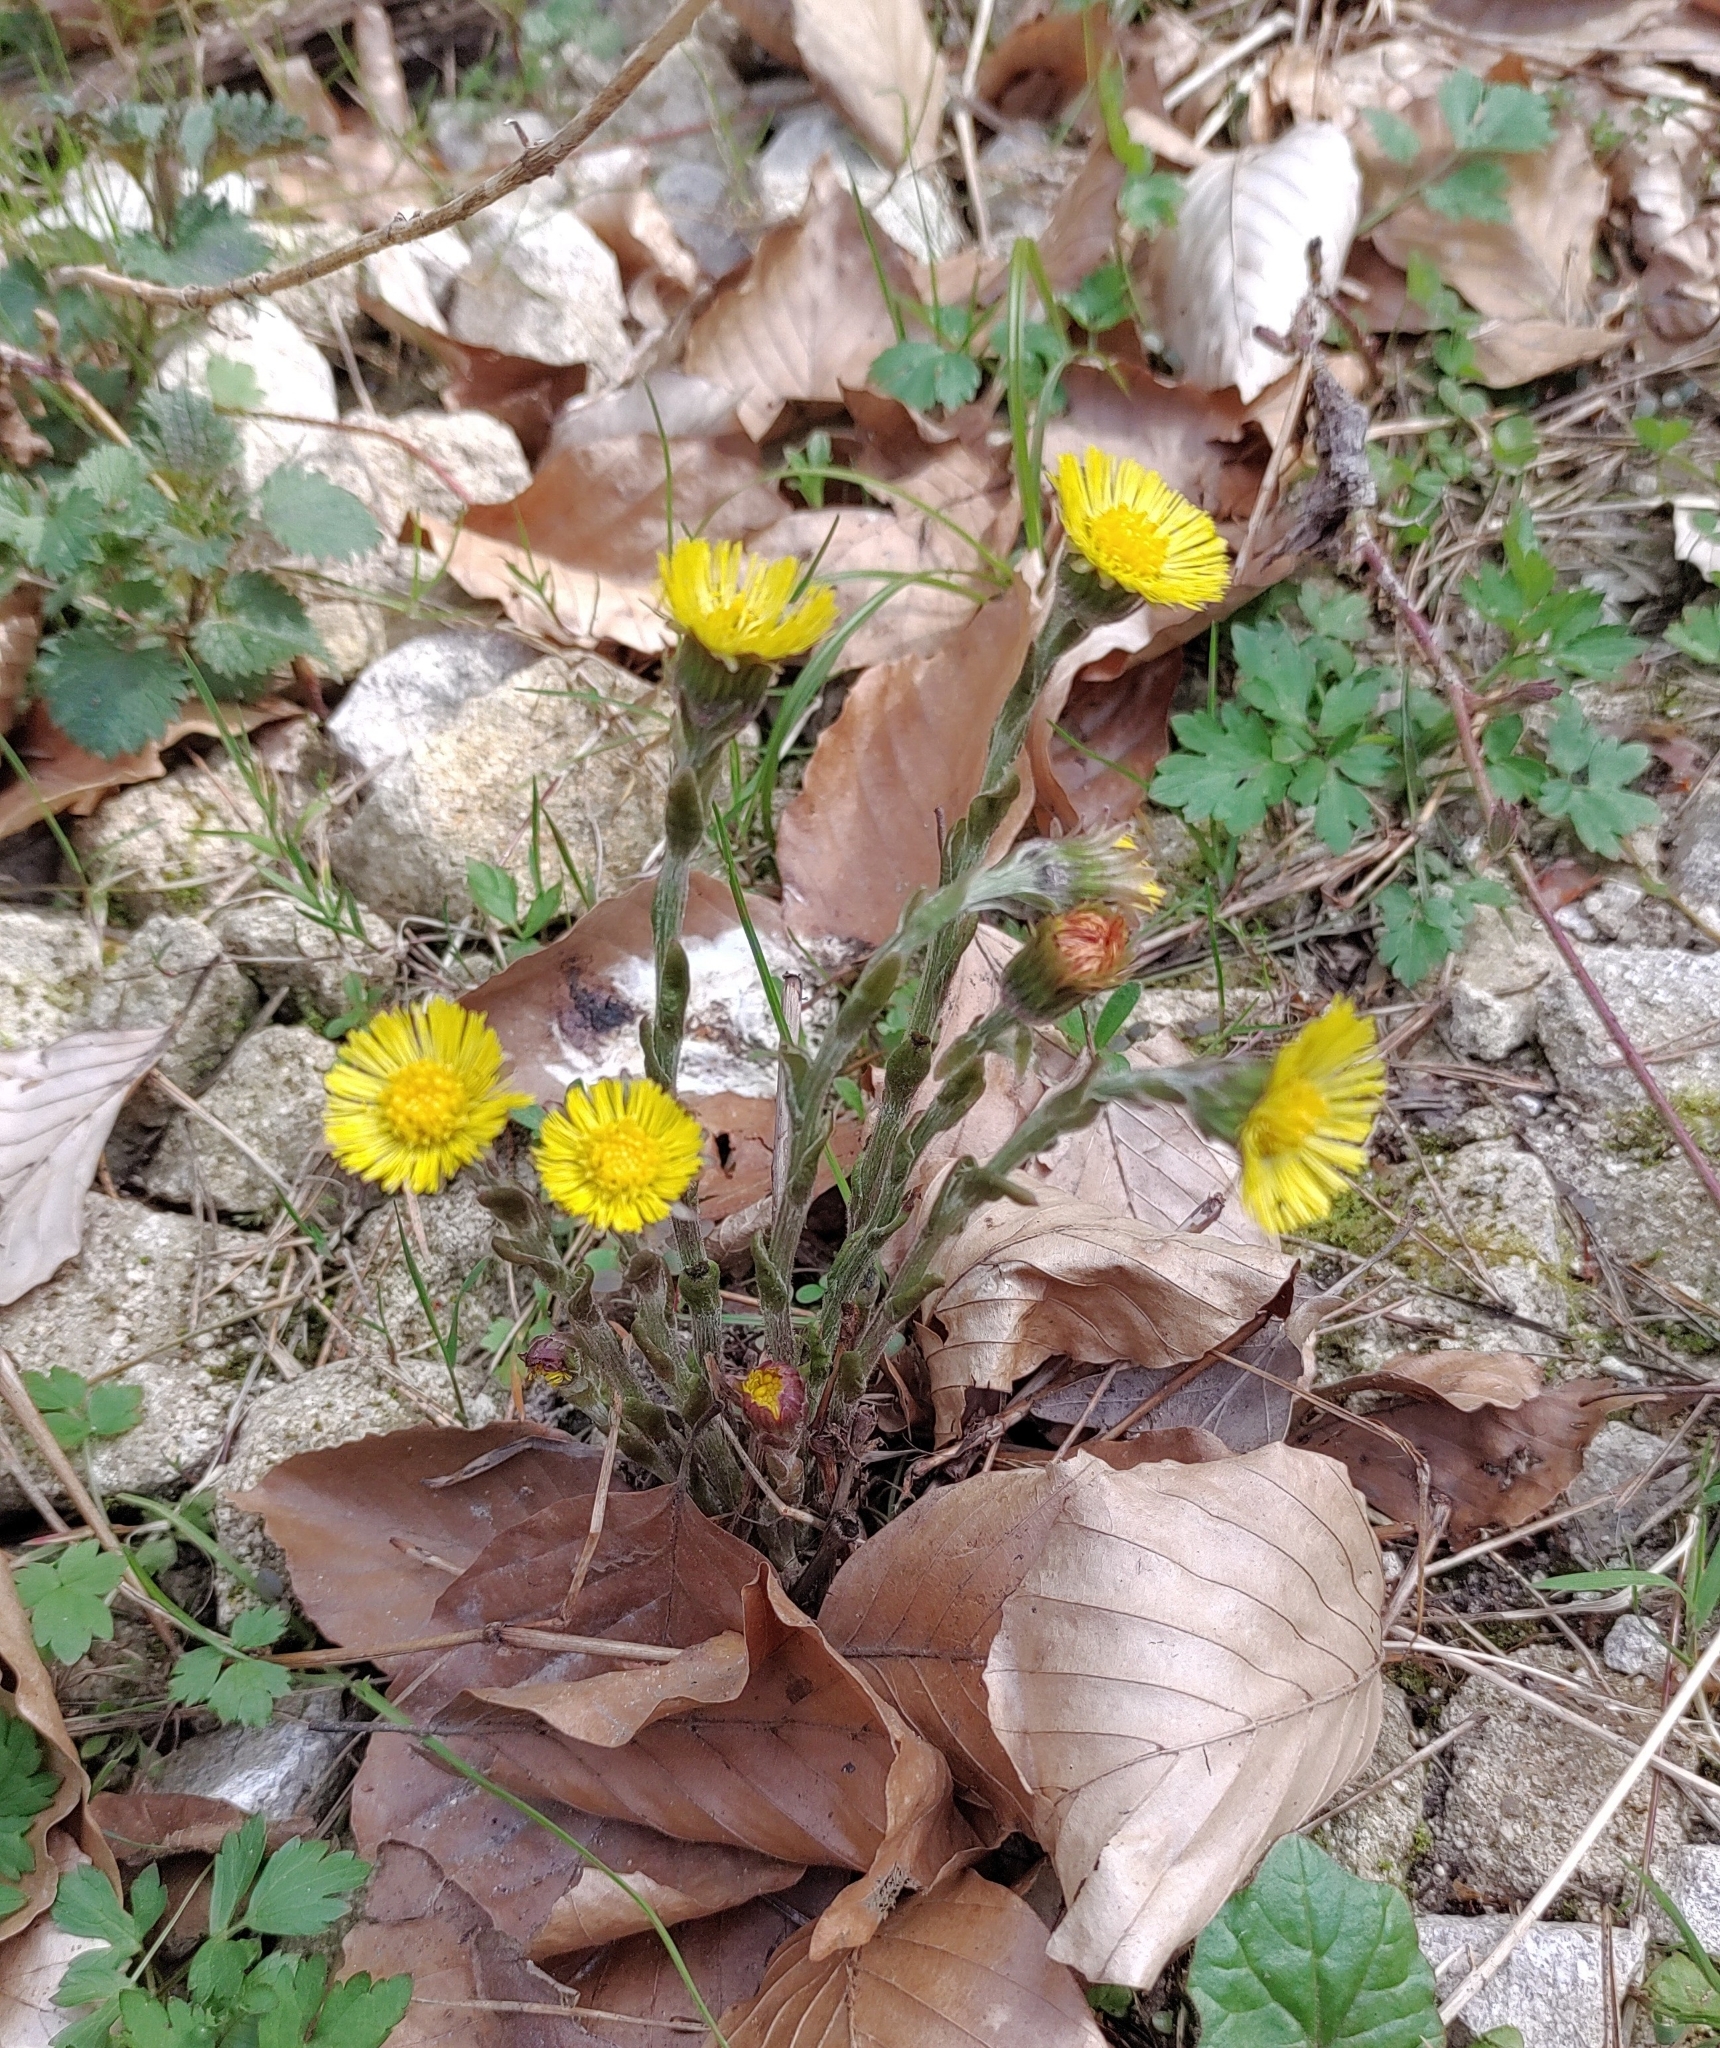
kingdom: Plantae
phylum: Tracheophyta
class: Magnoliopsida
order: Asterales
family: Asteraceae
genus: Tussilago
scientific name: Tussilago farfara
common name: Coltsfoot
